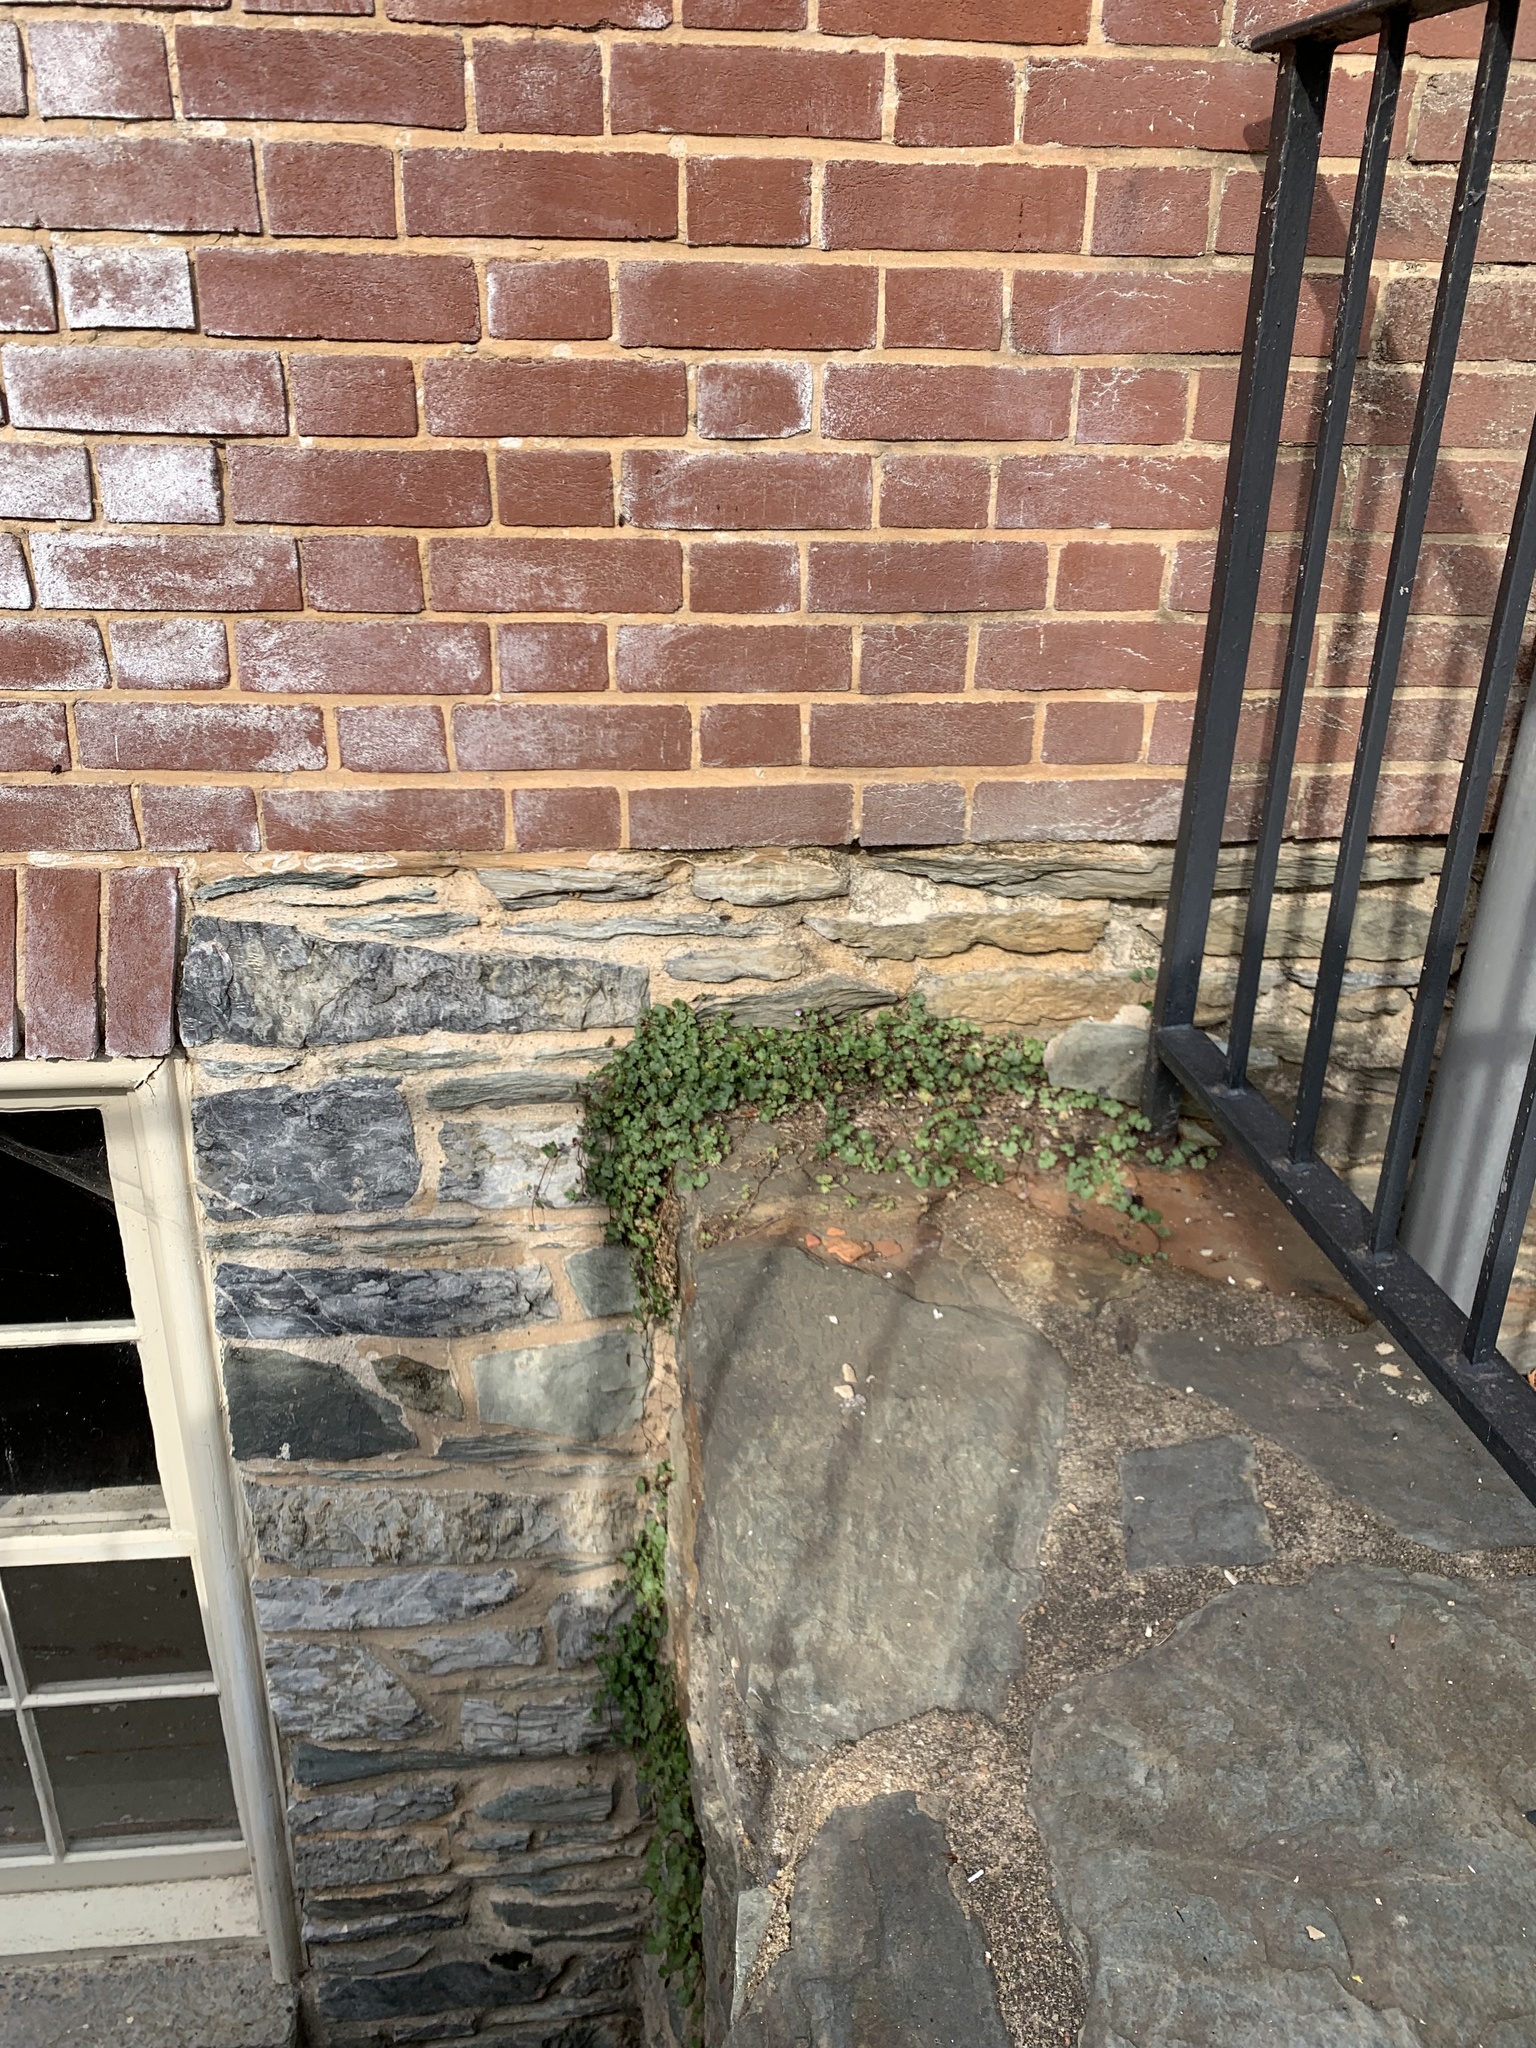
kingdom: Plantae
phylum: Tracheophyta
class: Magnoliopsida
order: Lamiales
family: Plantaginaceae
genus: Cymbalaria
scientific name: Cymbalaria muralis
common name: Ivy-leaved toadflax
